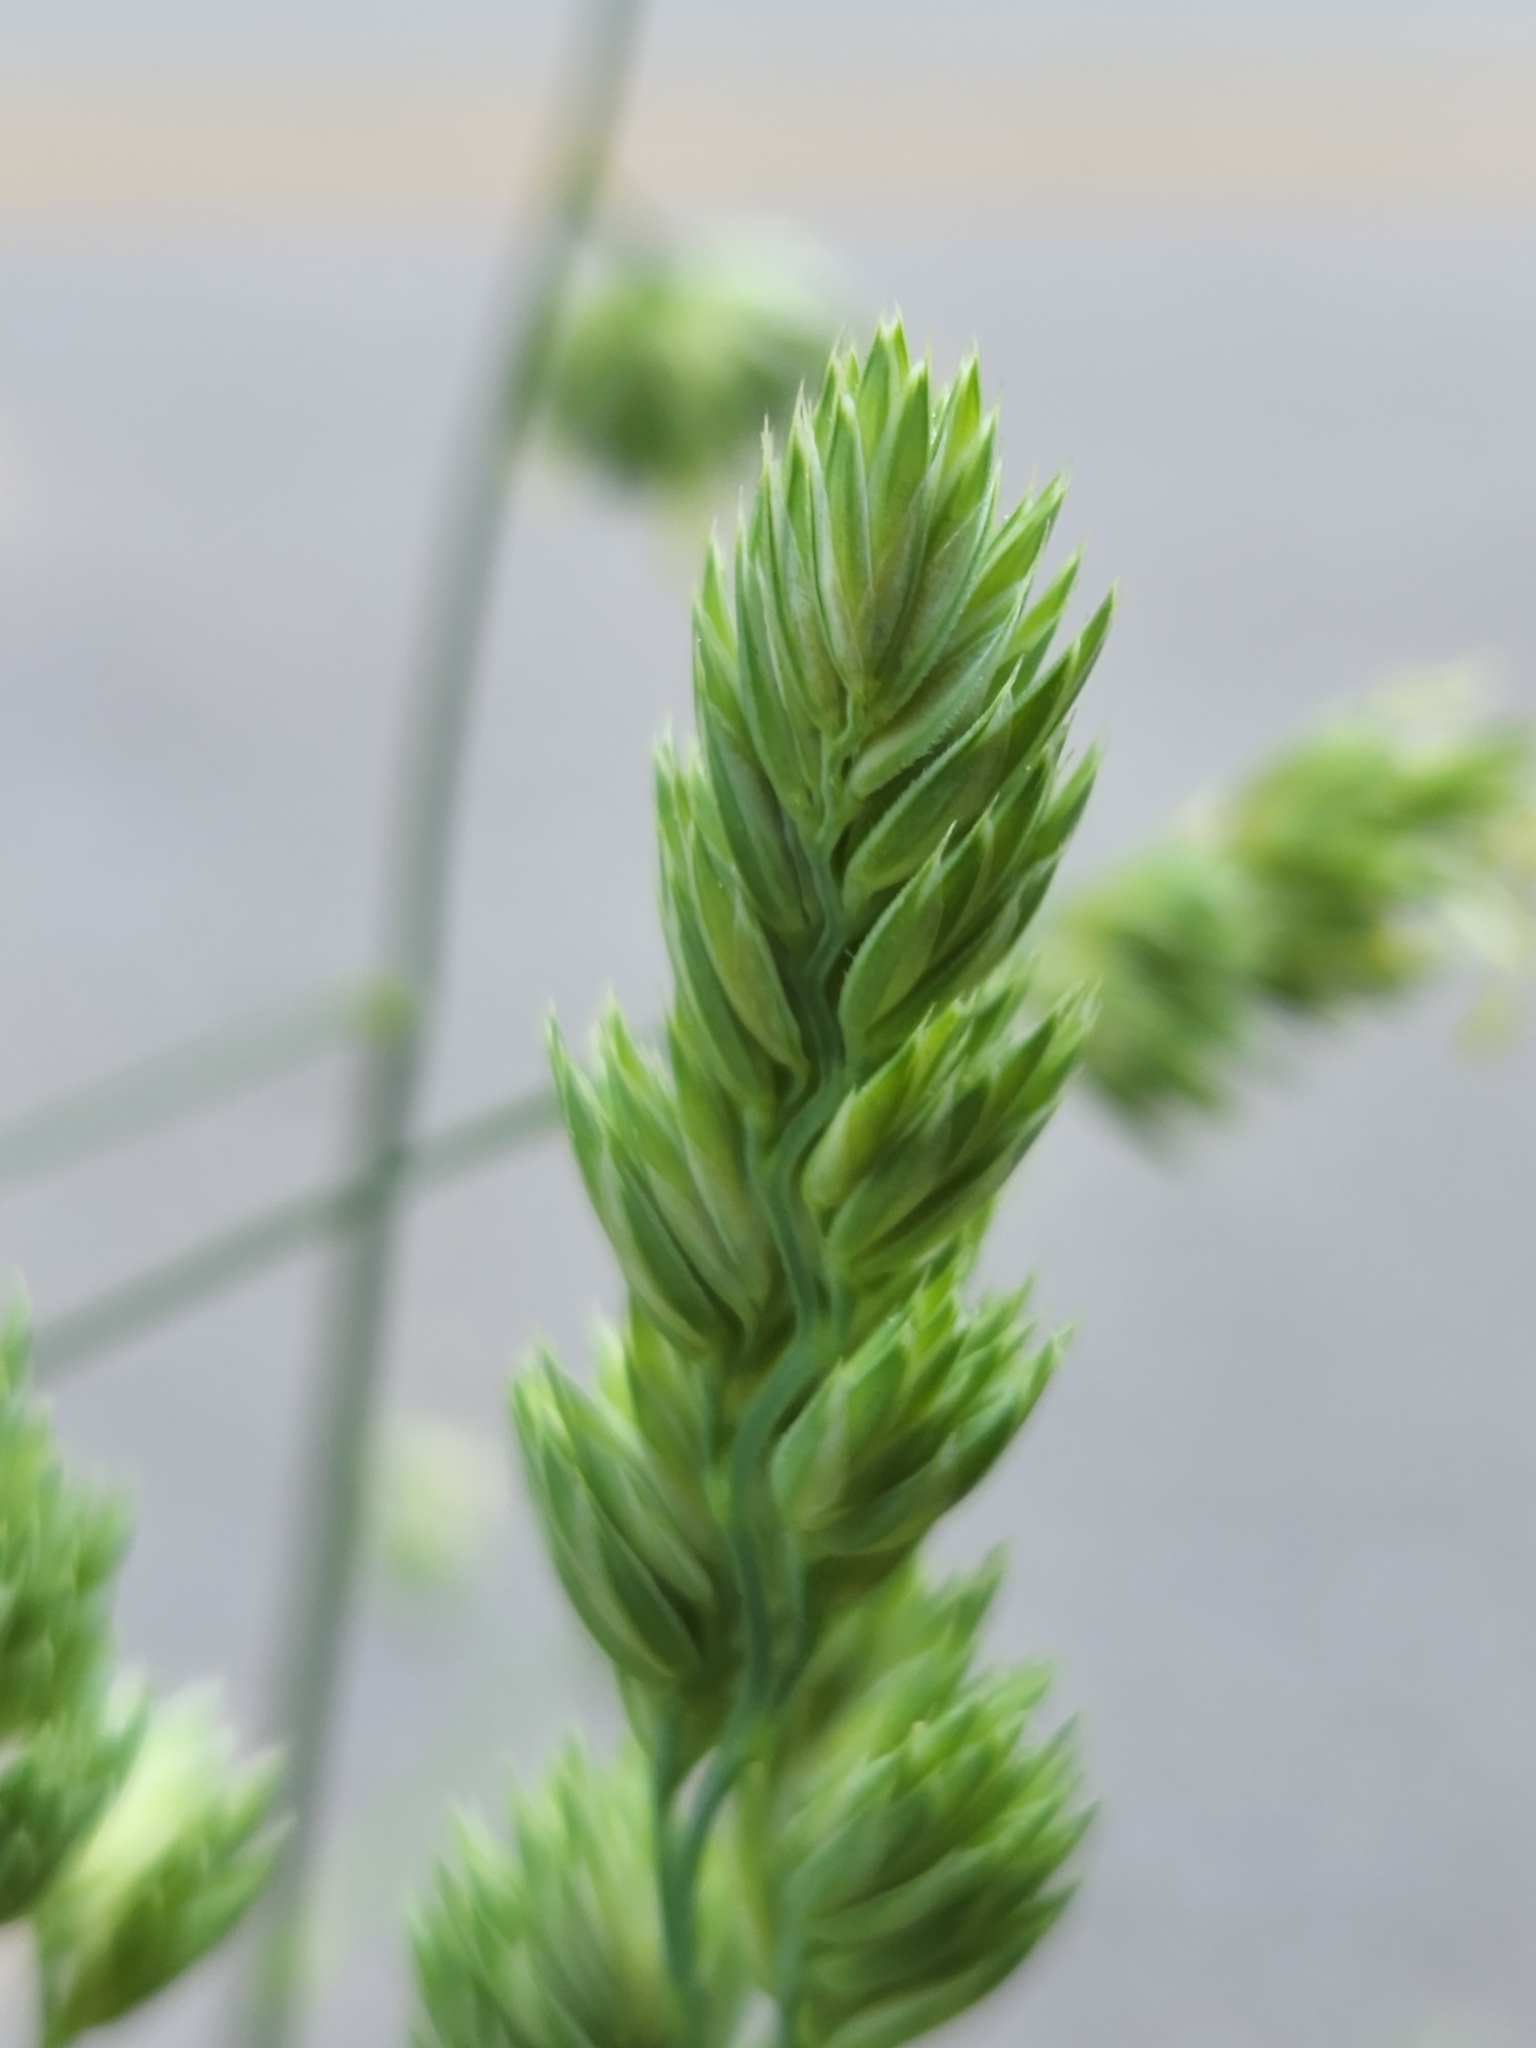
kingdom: Plantae
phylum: Tracheophyta
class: Liliopsida
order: Poales
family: Poaceae
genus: Dactylis
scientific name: Dactylis glomerata
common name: Orchardgrass
